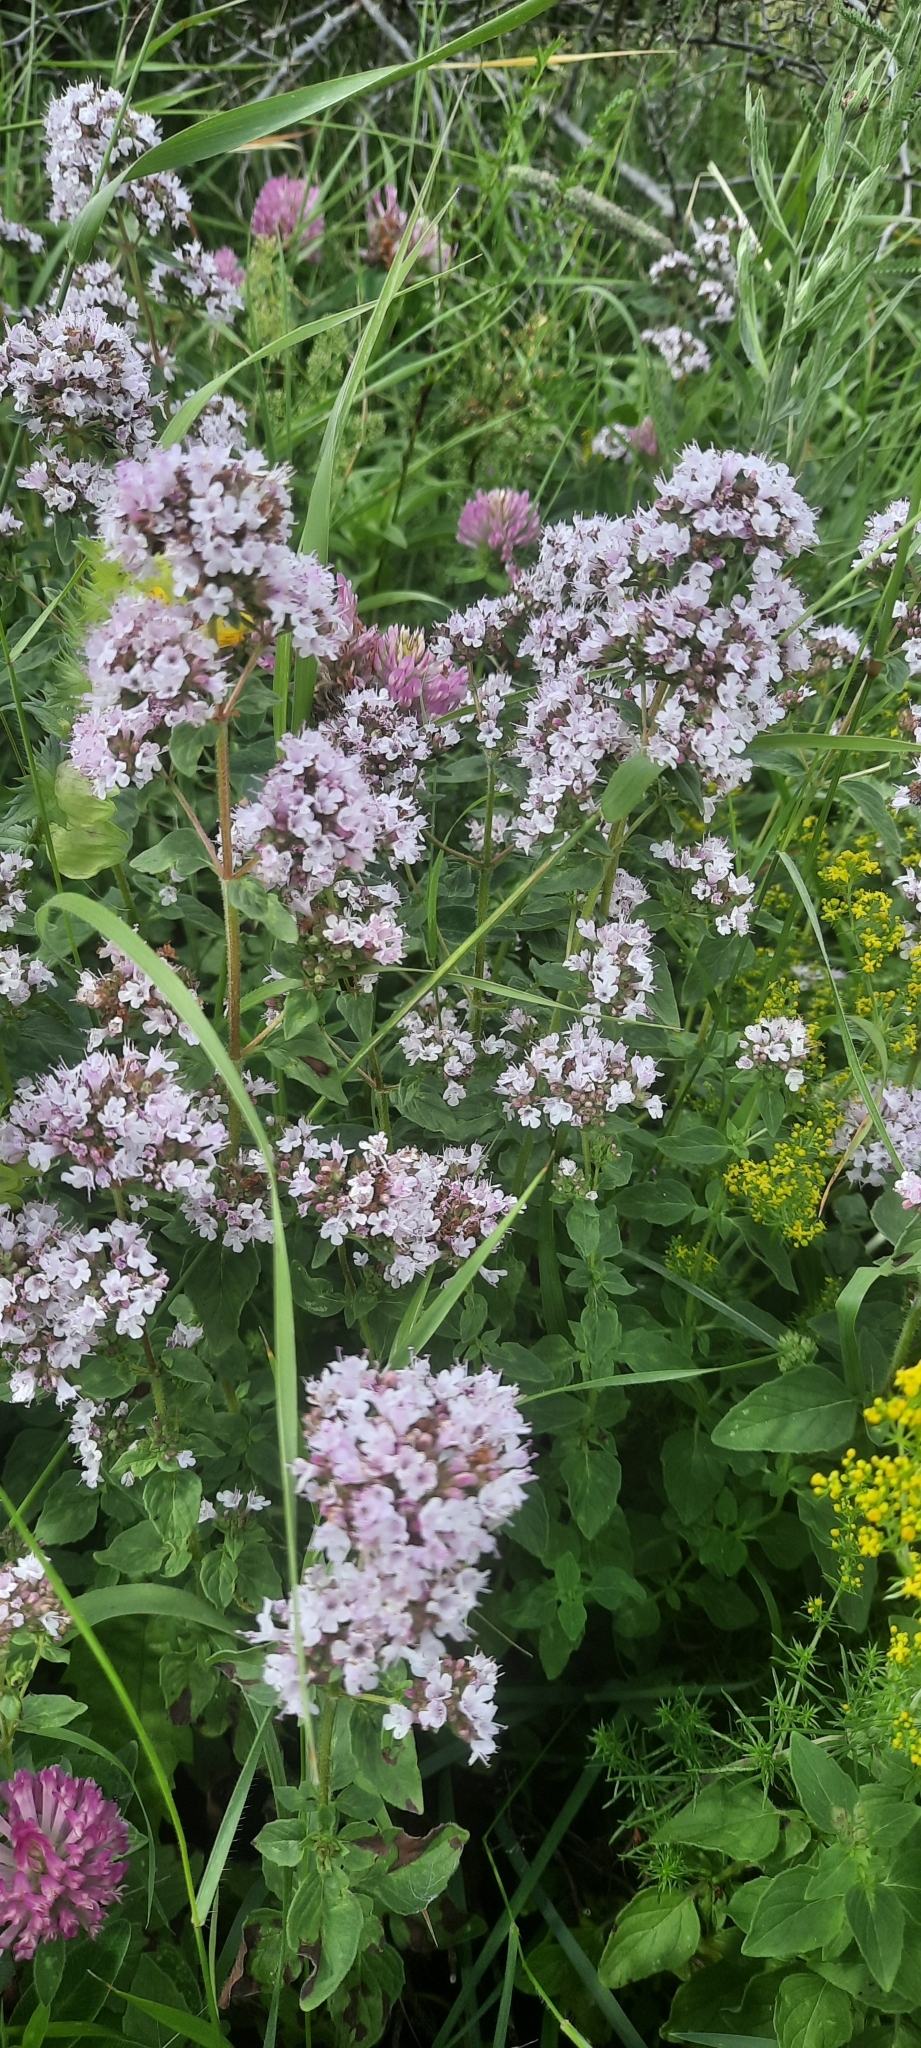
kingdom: Plantae
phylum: Tracheophyta
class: Magnoliopsida
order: Lamiales
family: Lamiaceae
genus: Origanum
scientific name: Origanum vulgare
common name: Wild marjoram
